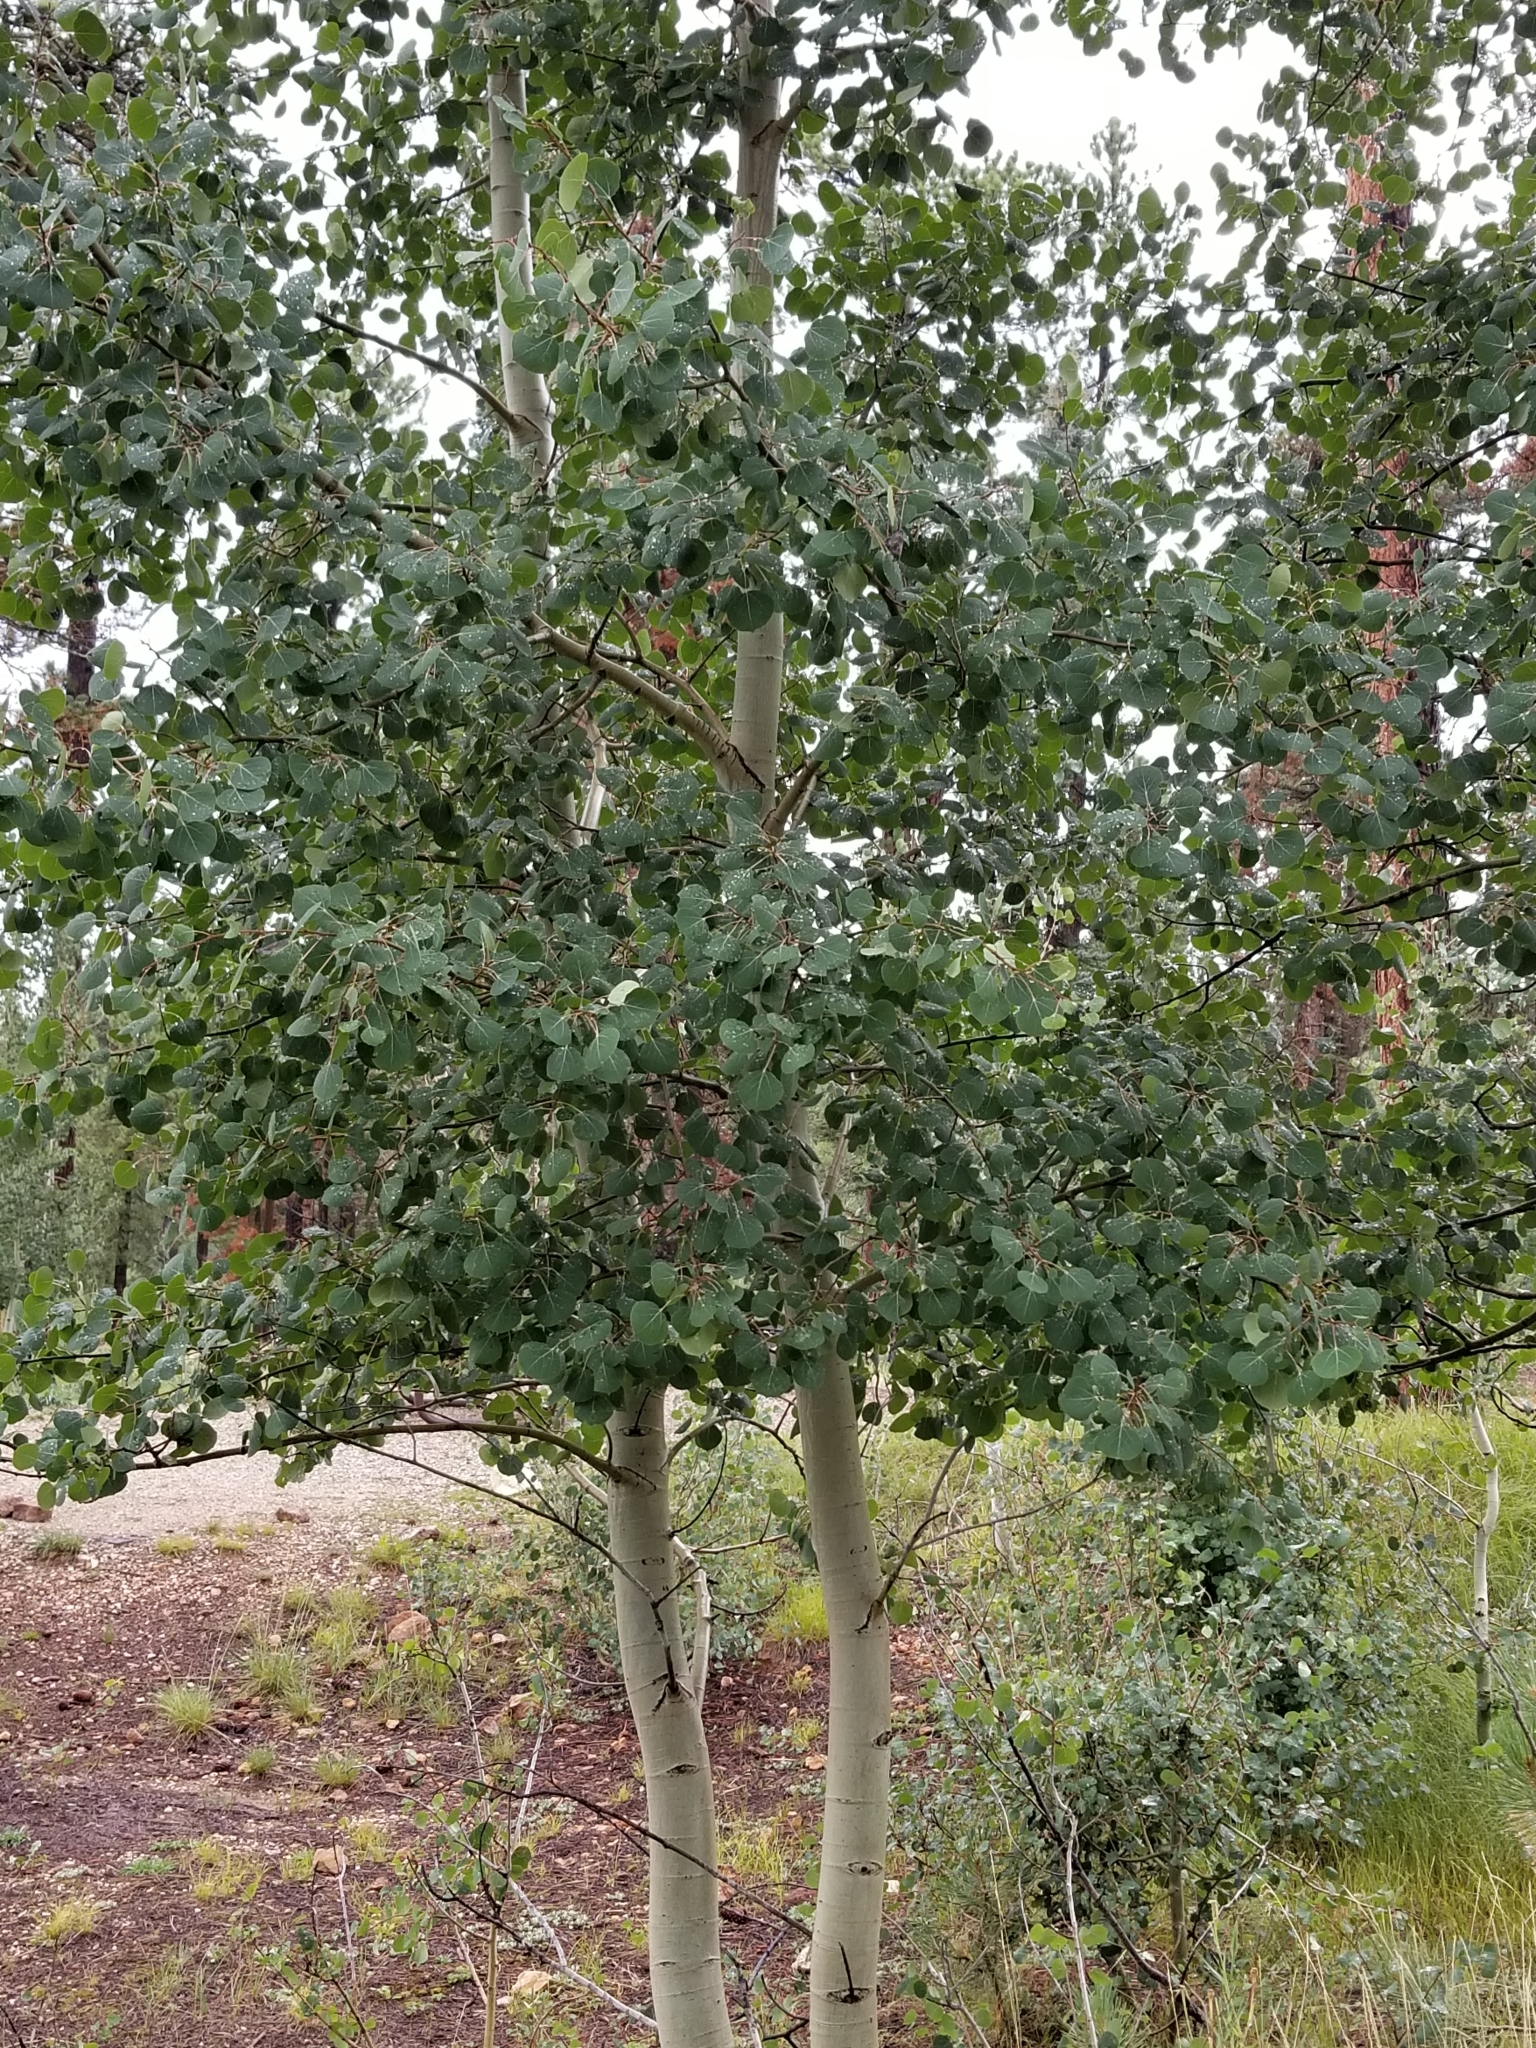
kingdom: Plantae
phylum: Tracheophyta
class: Magnoliopsida
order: Malpighiales
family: Salicaceae
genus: Populus
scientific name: Populus tremuloides
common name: Quaking aspen
